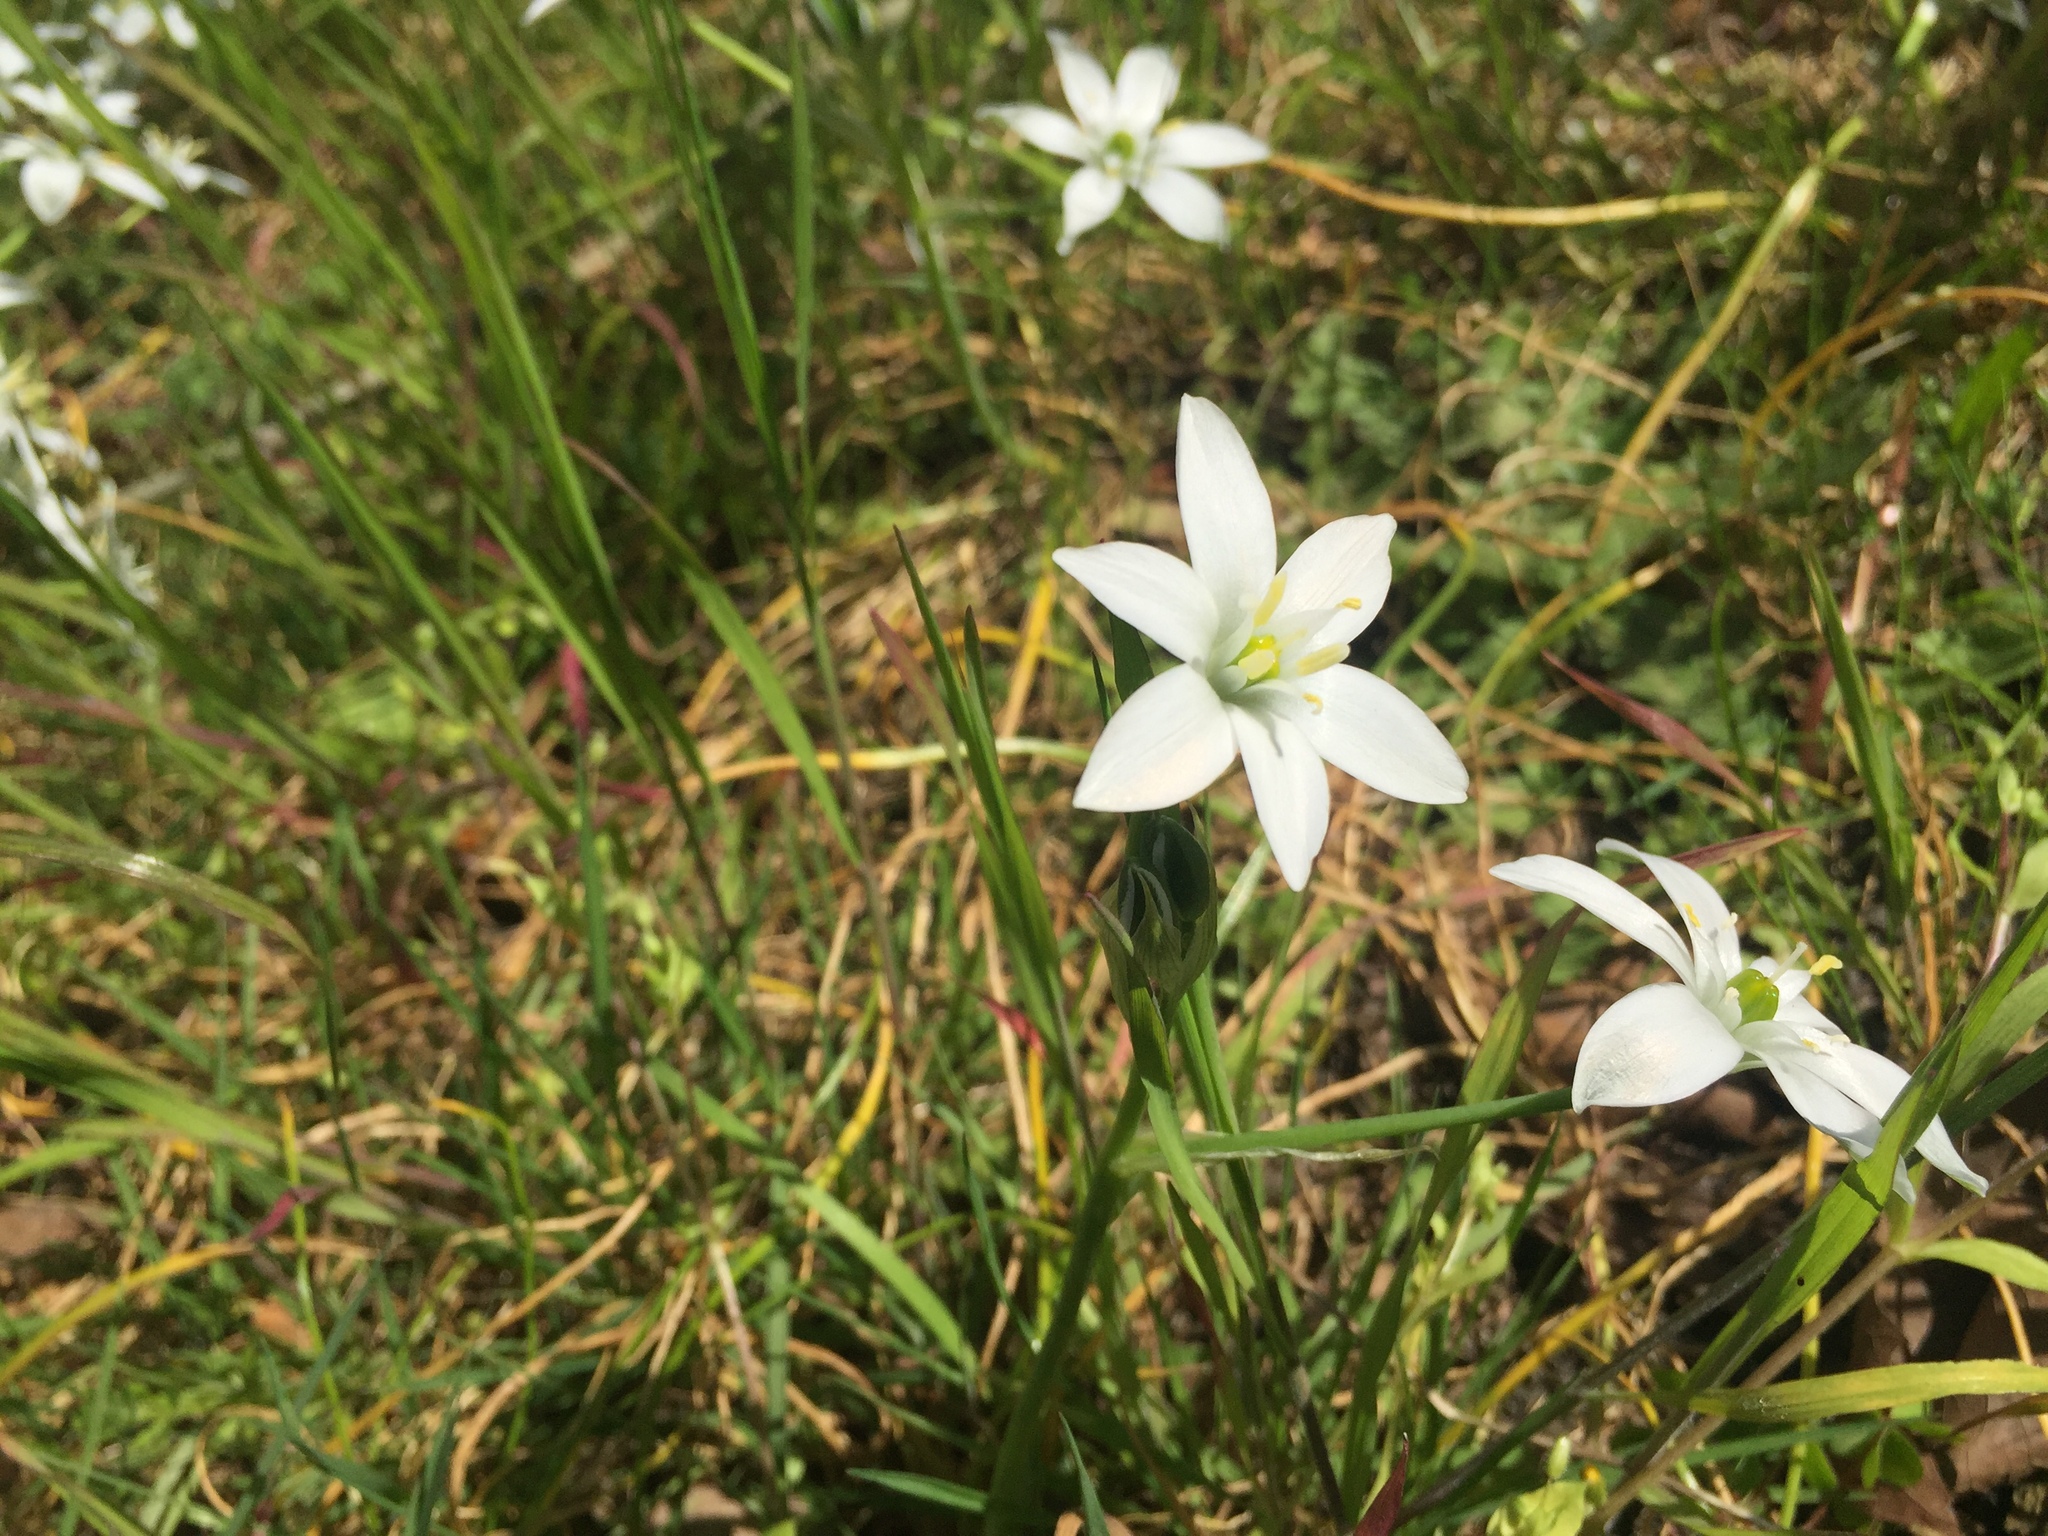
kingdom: Plantae
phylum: Tracheophyta
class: Liliopsida
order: Asparagales
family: Asparagaceae
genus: Ornithogalum
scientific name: Ornithogalum umbellatum
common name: Garden star-of-bethlehem
